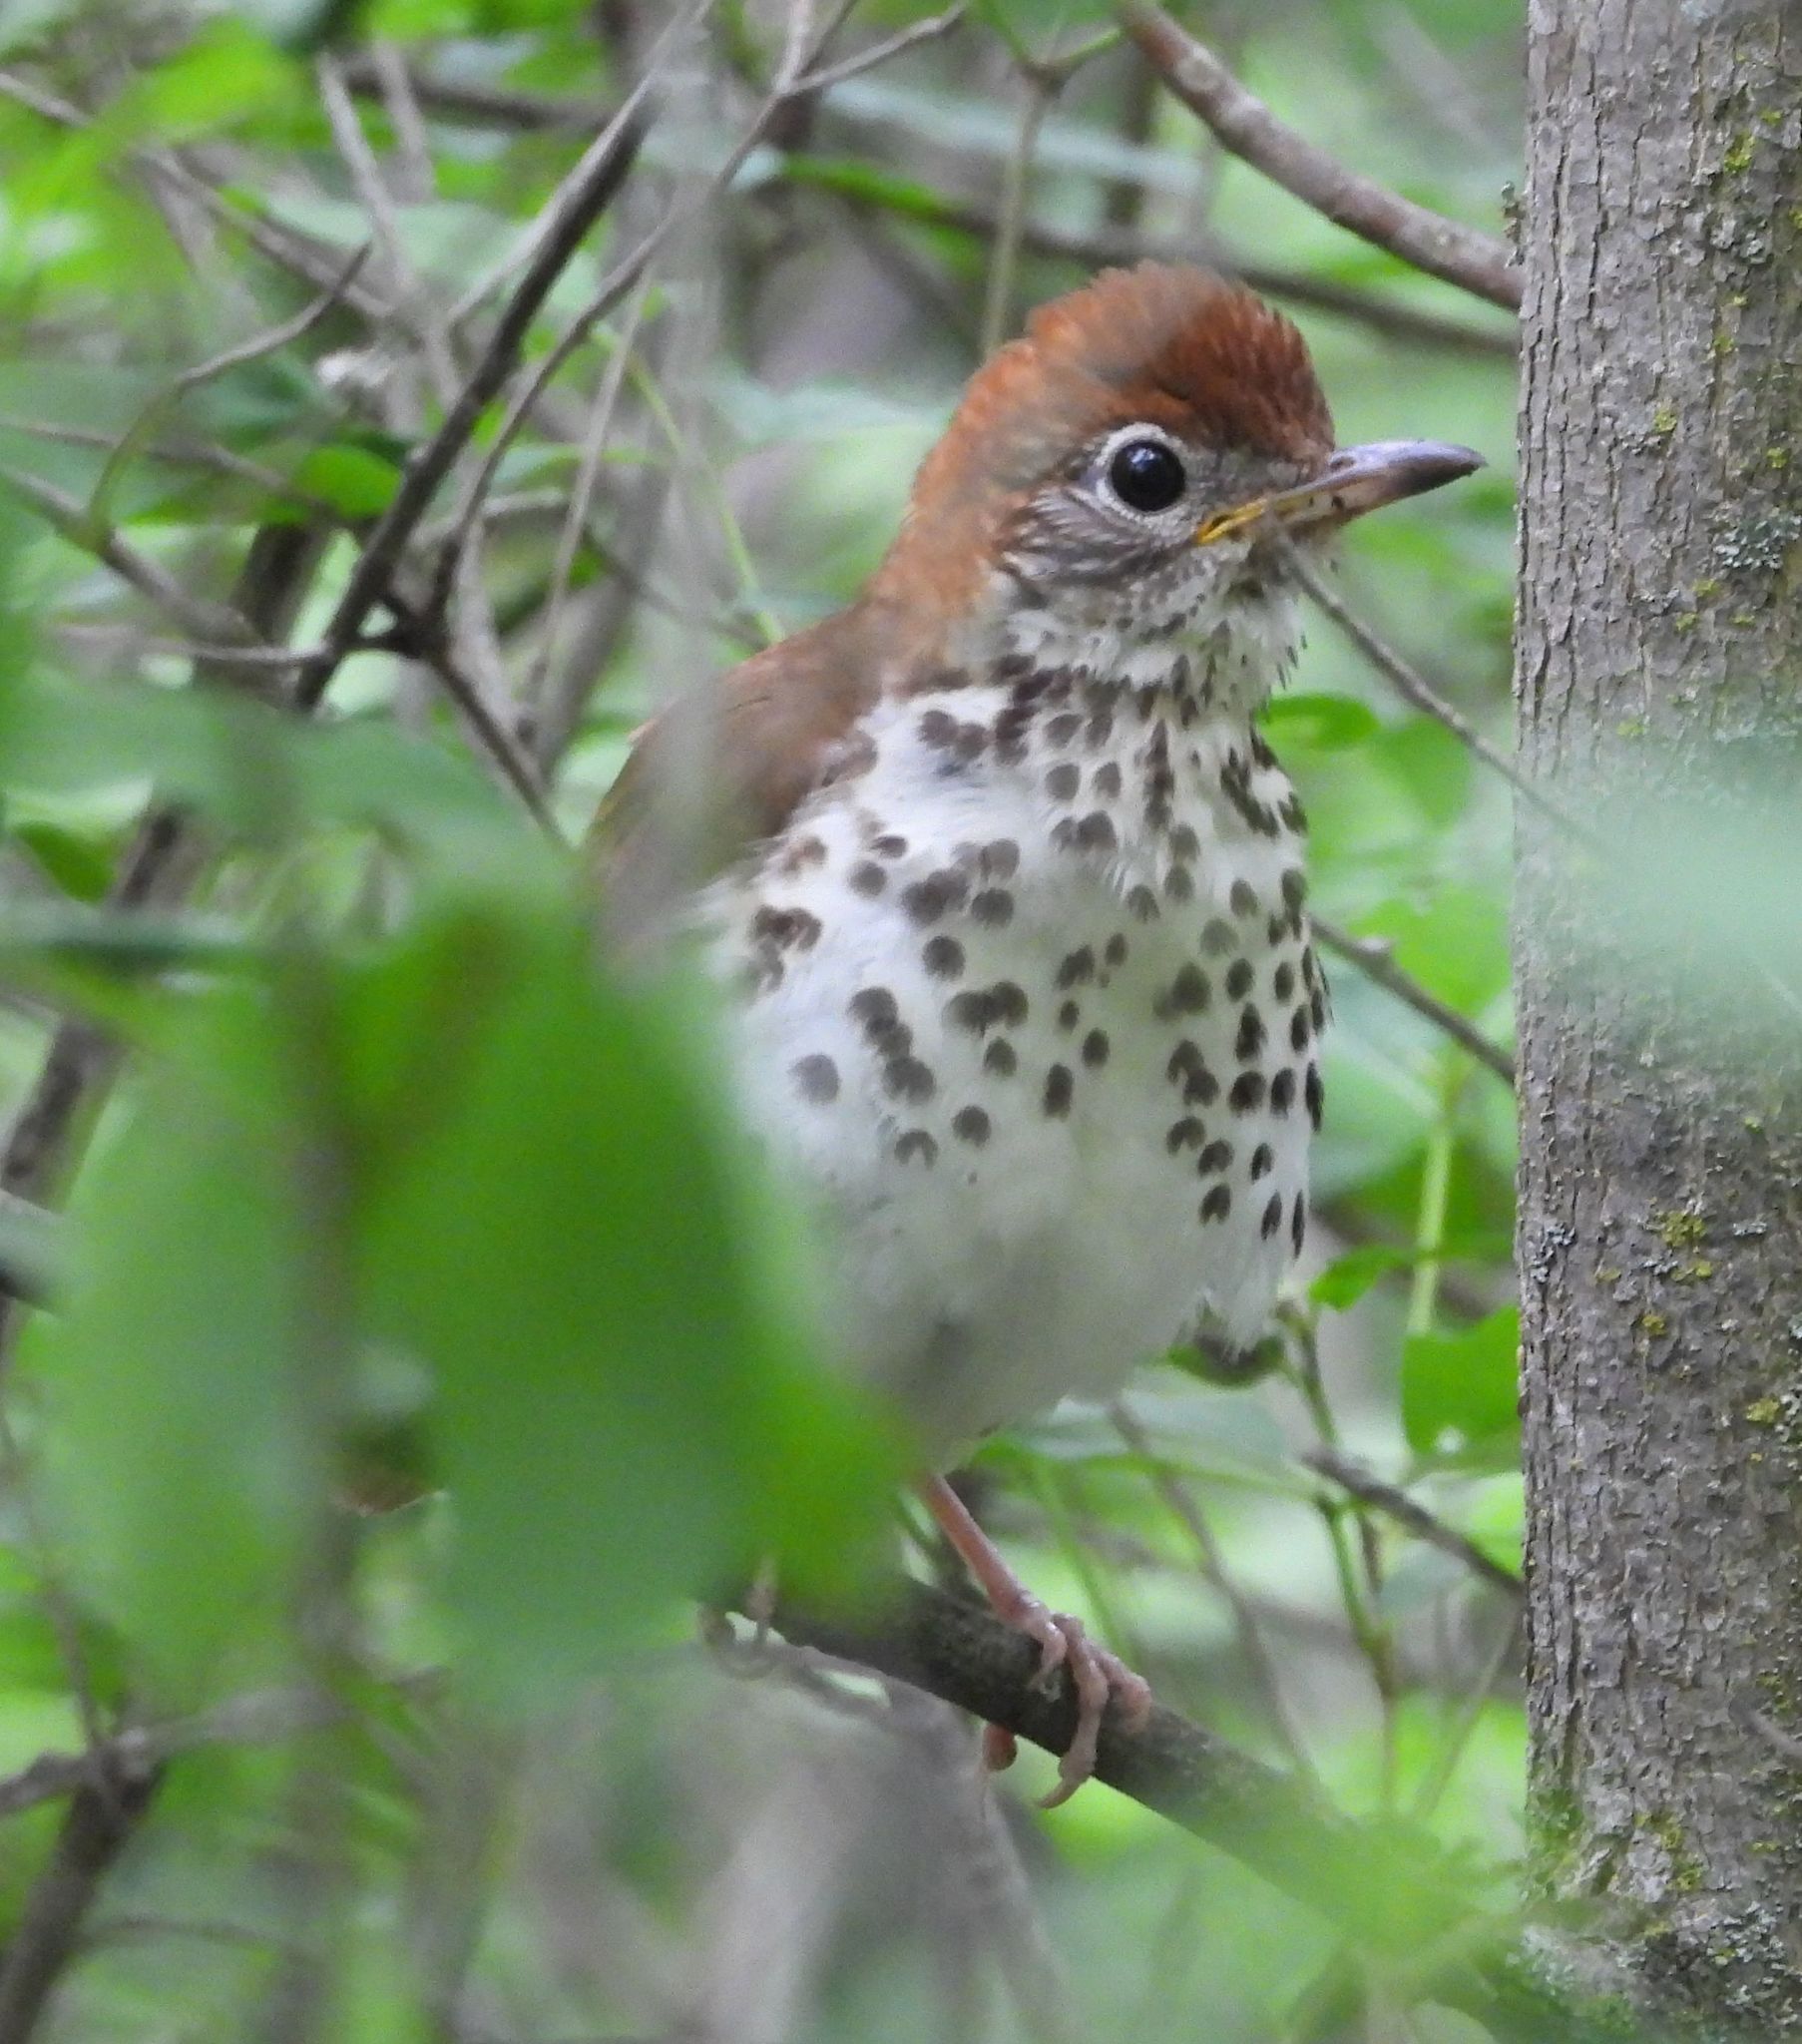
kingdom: Animalia
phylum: Chordata
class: Aves
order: Passeriformes
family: Turdidae
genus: Hylocichla
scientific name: Hylocichla mustelina
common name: Wood thrush
